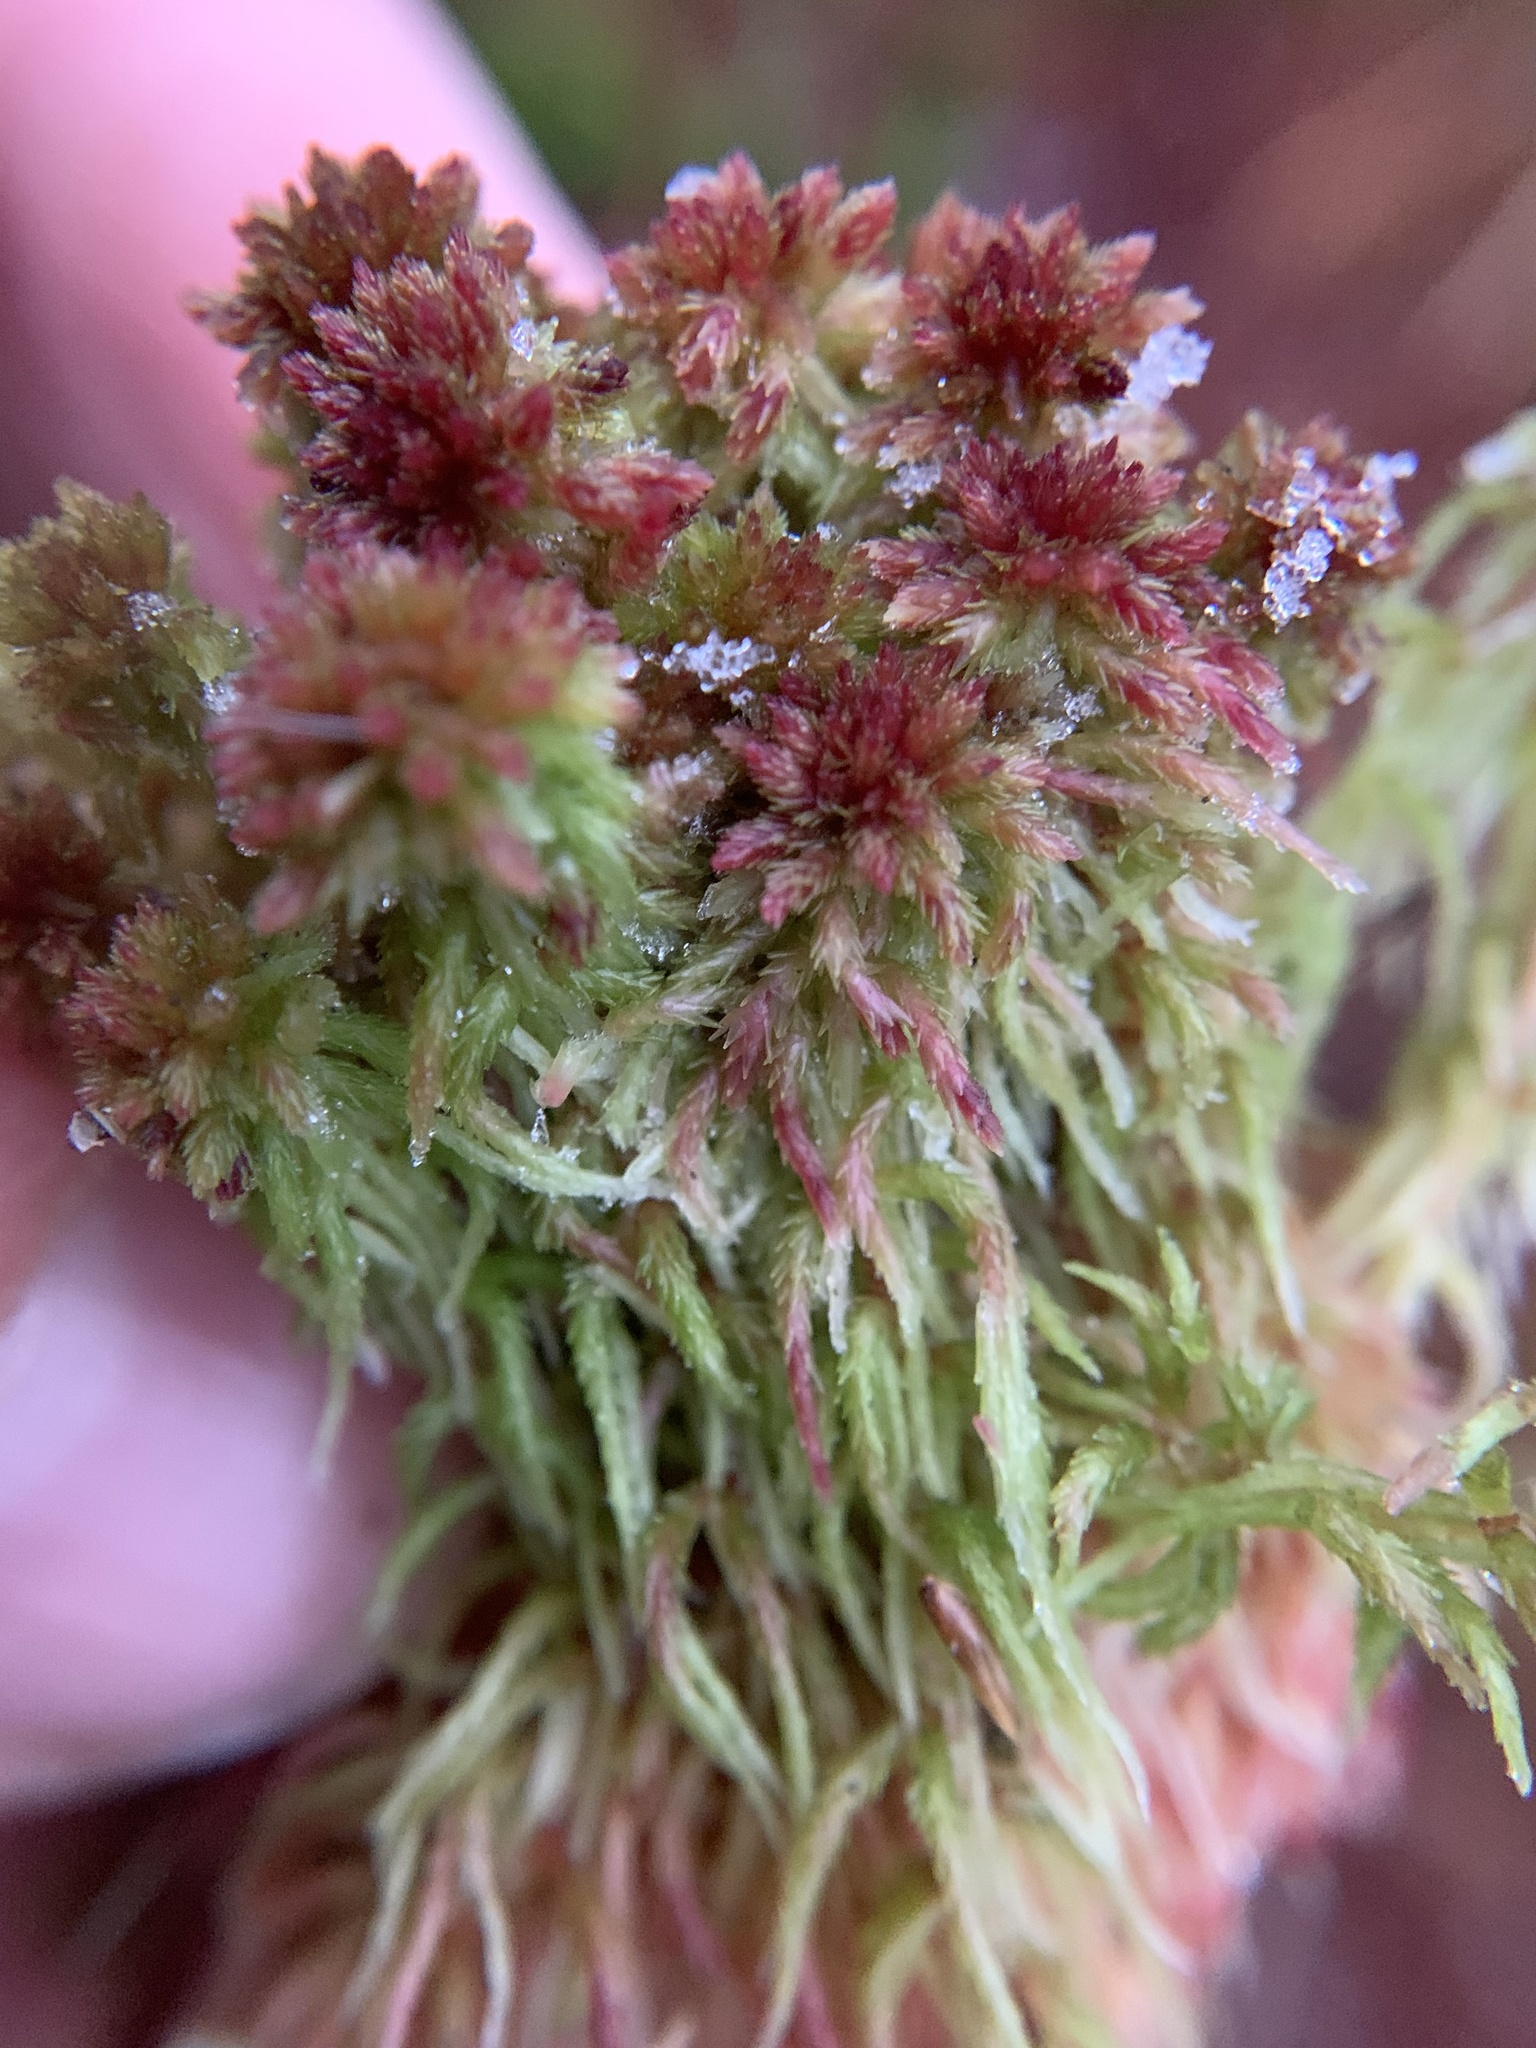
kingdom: Plantae
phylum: Bryophyta
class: Sphagnopsida
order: Sphagnales
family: Sphagnaceae
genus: Sphagnum
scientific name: Sphagnum capillifolium
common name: Small red peat moss
